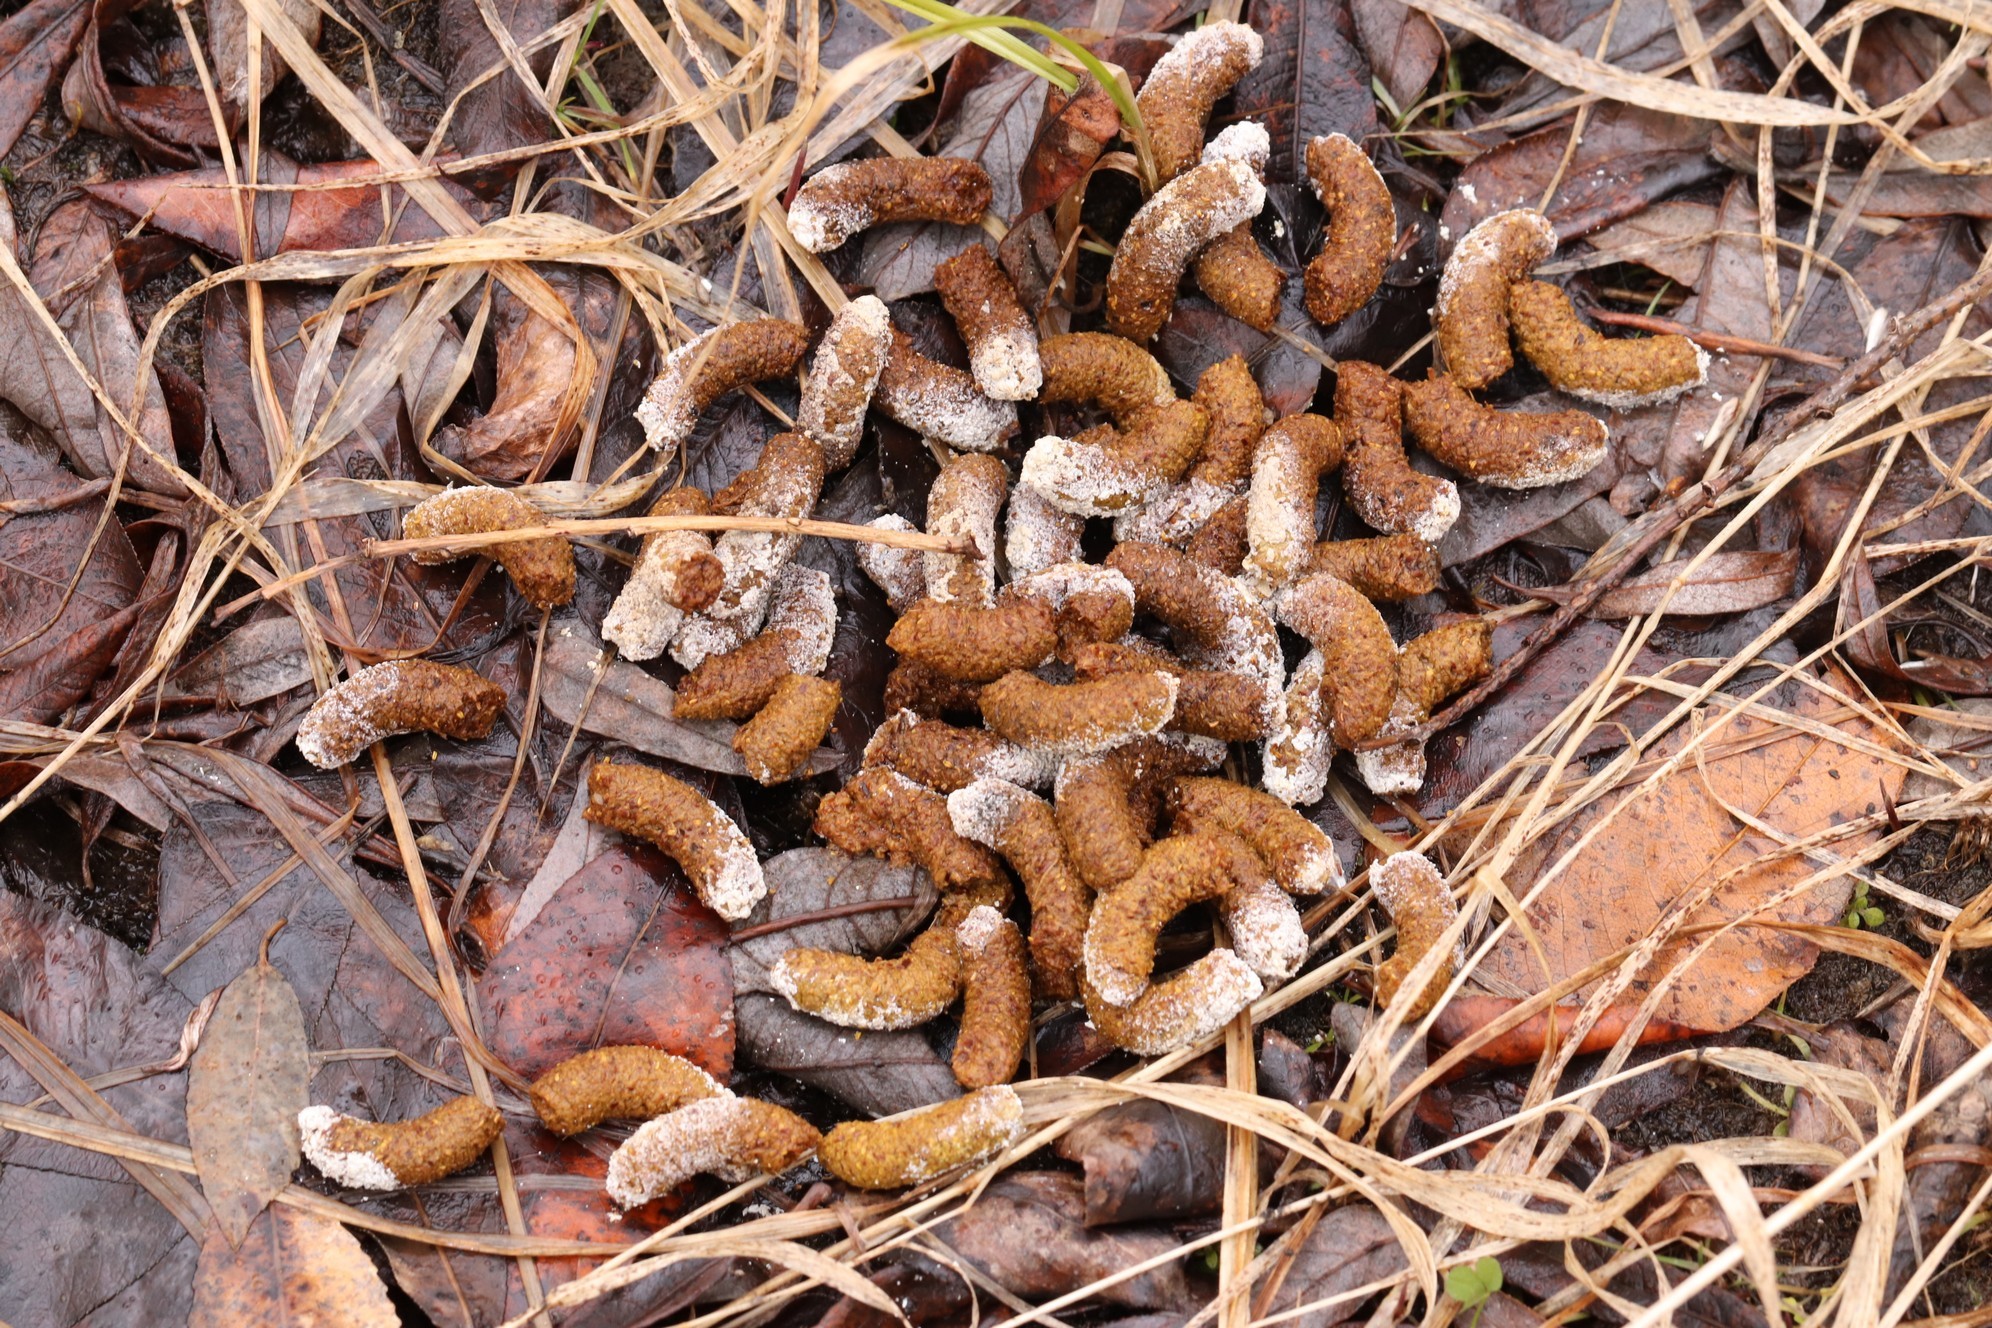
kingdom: Animalia
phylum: Chordata
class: Aves
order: Galliformes
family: Phasianidae
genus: Tetrastes
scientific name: Tetrastes bonasia
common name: Hazel grouse
